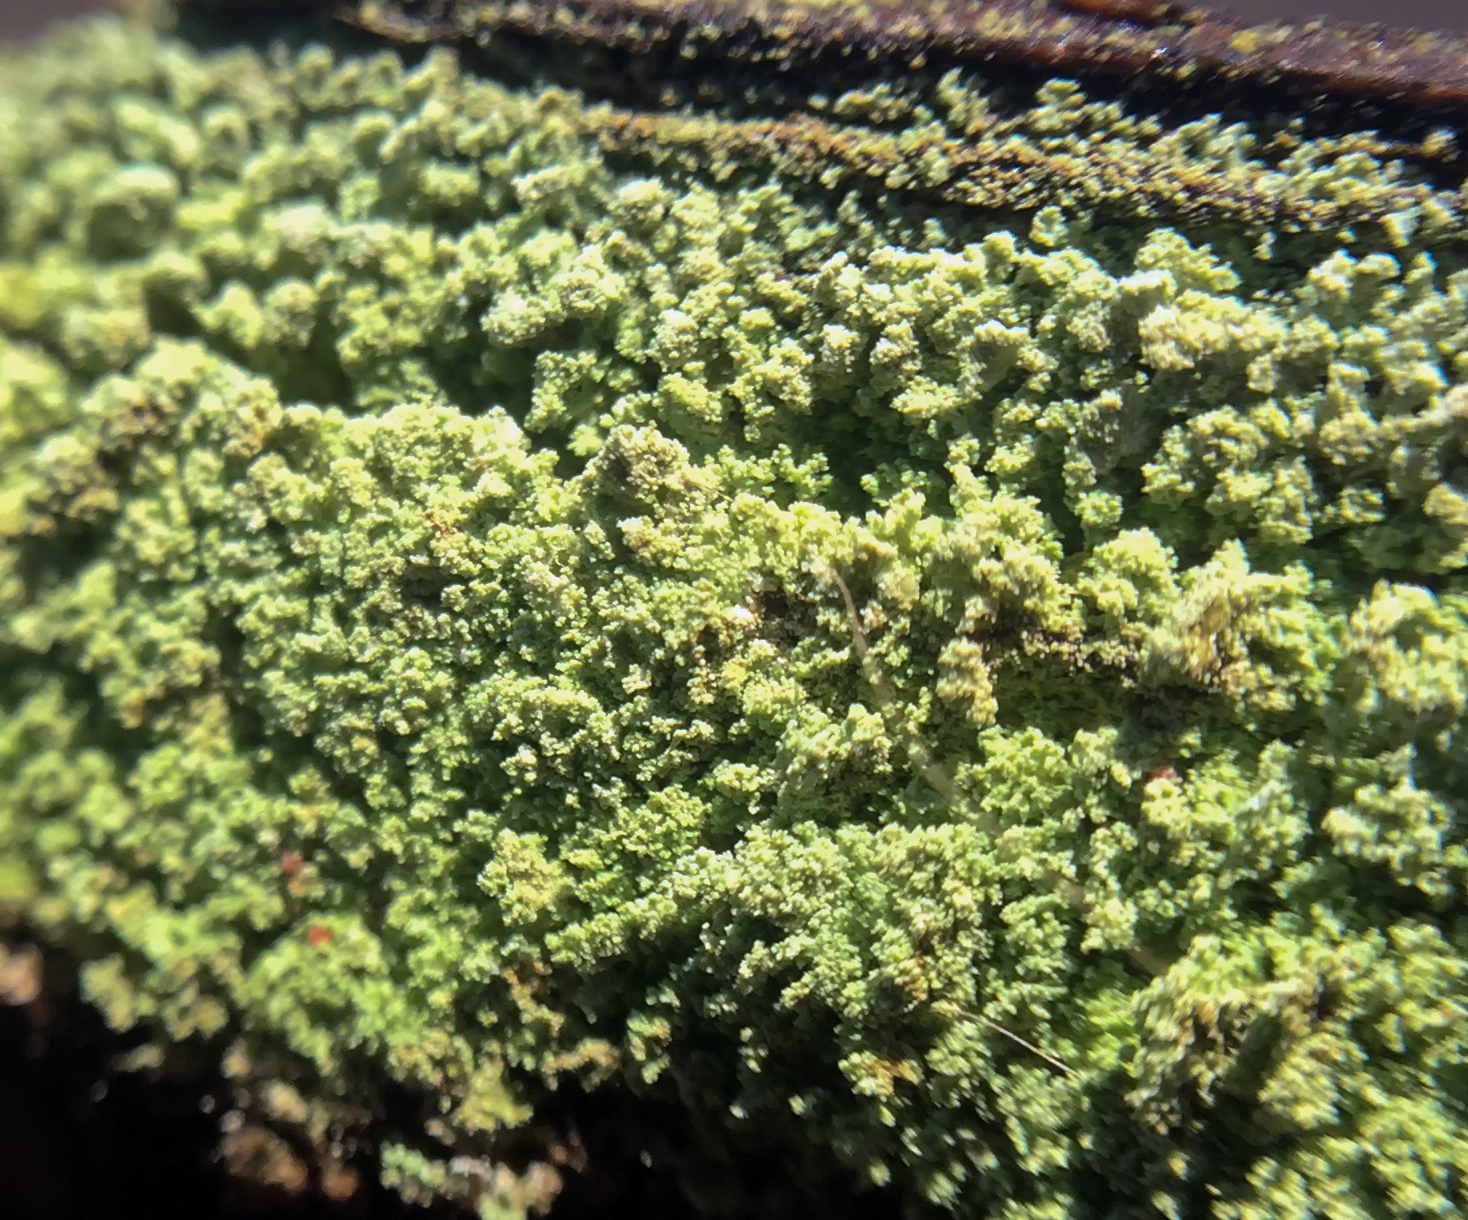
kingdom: Fungi
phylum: Ascomycota
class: Lecanoromycetes
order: Lecanorales
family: Cladoniaceae
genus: Cladonia
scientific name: Cladonia parasitica
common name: Fence-rail clad lichen
